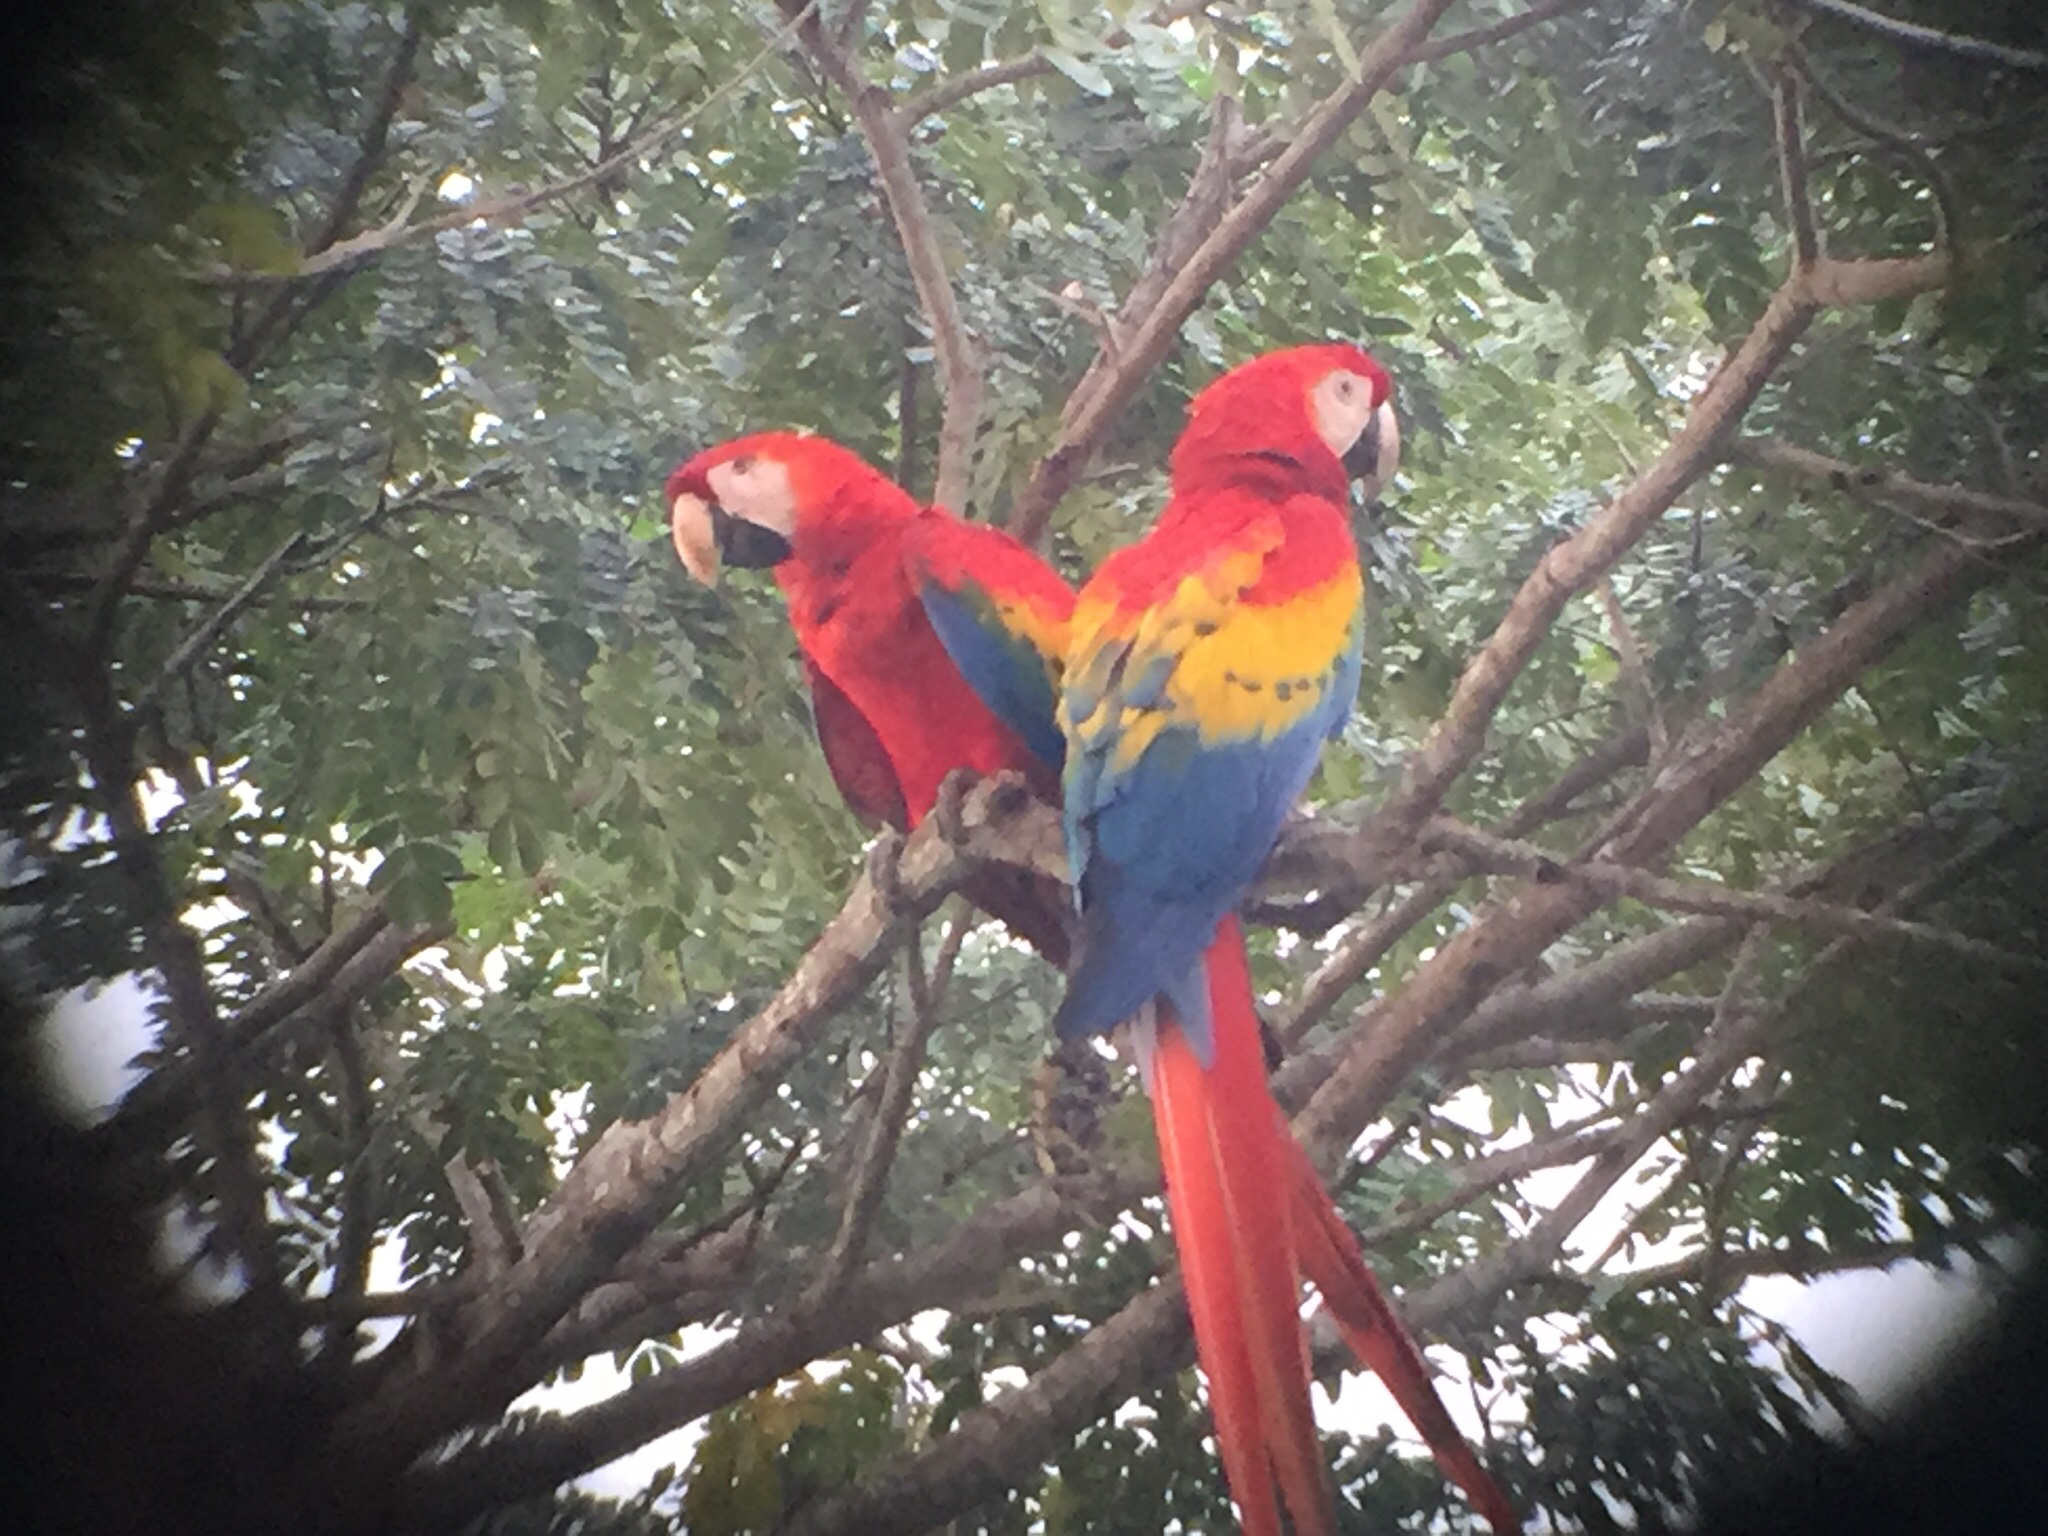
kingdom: Animalia
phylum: Chordata
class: Aves
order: Psittaciformes
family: Psittacidae
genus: Ara
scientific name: Ara macao
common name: Scarlet macaw
